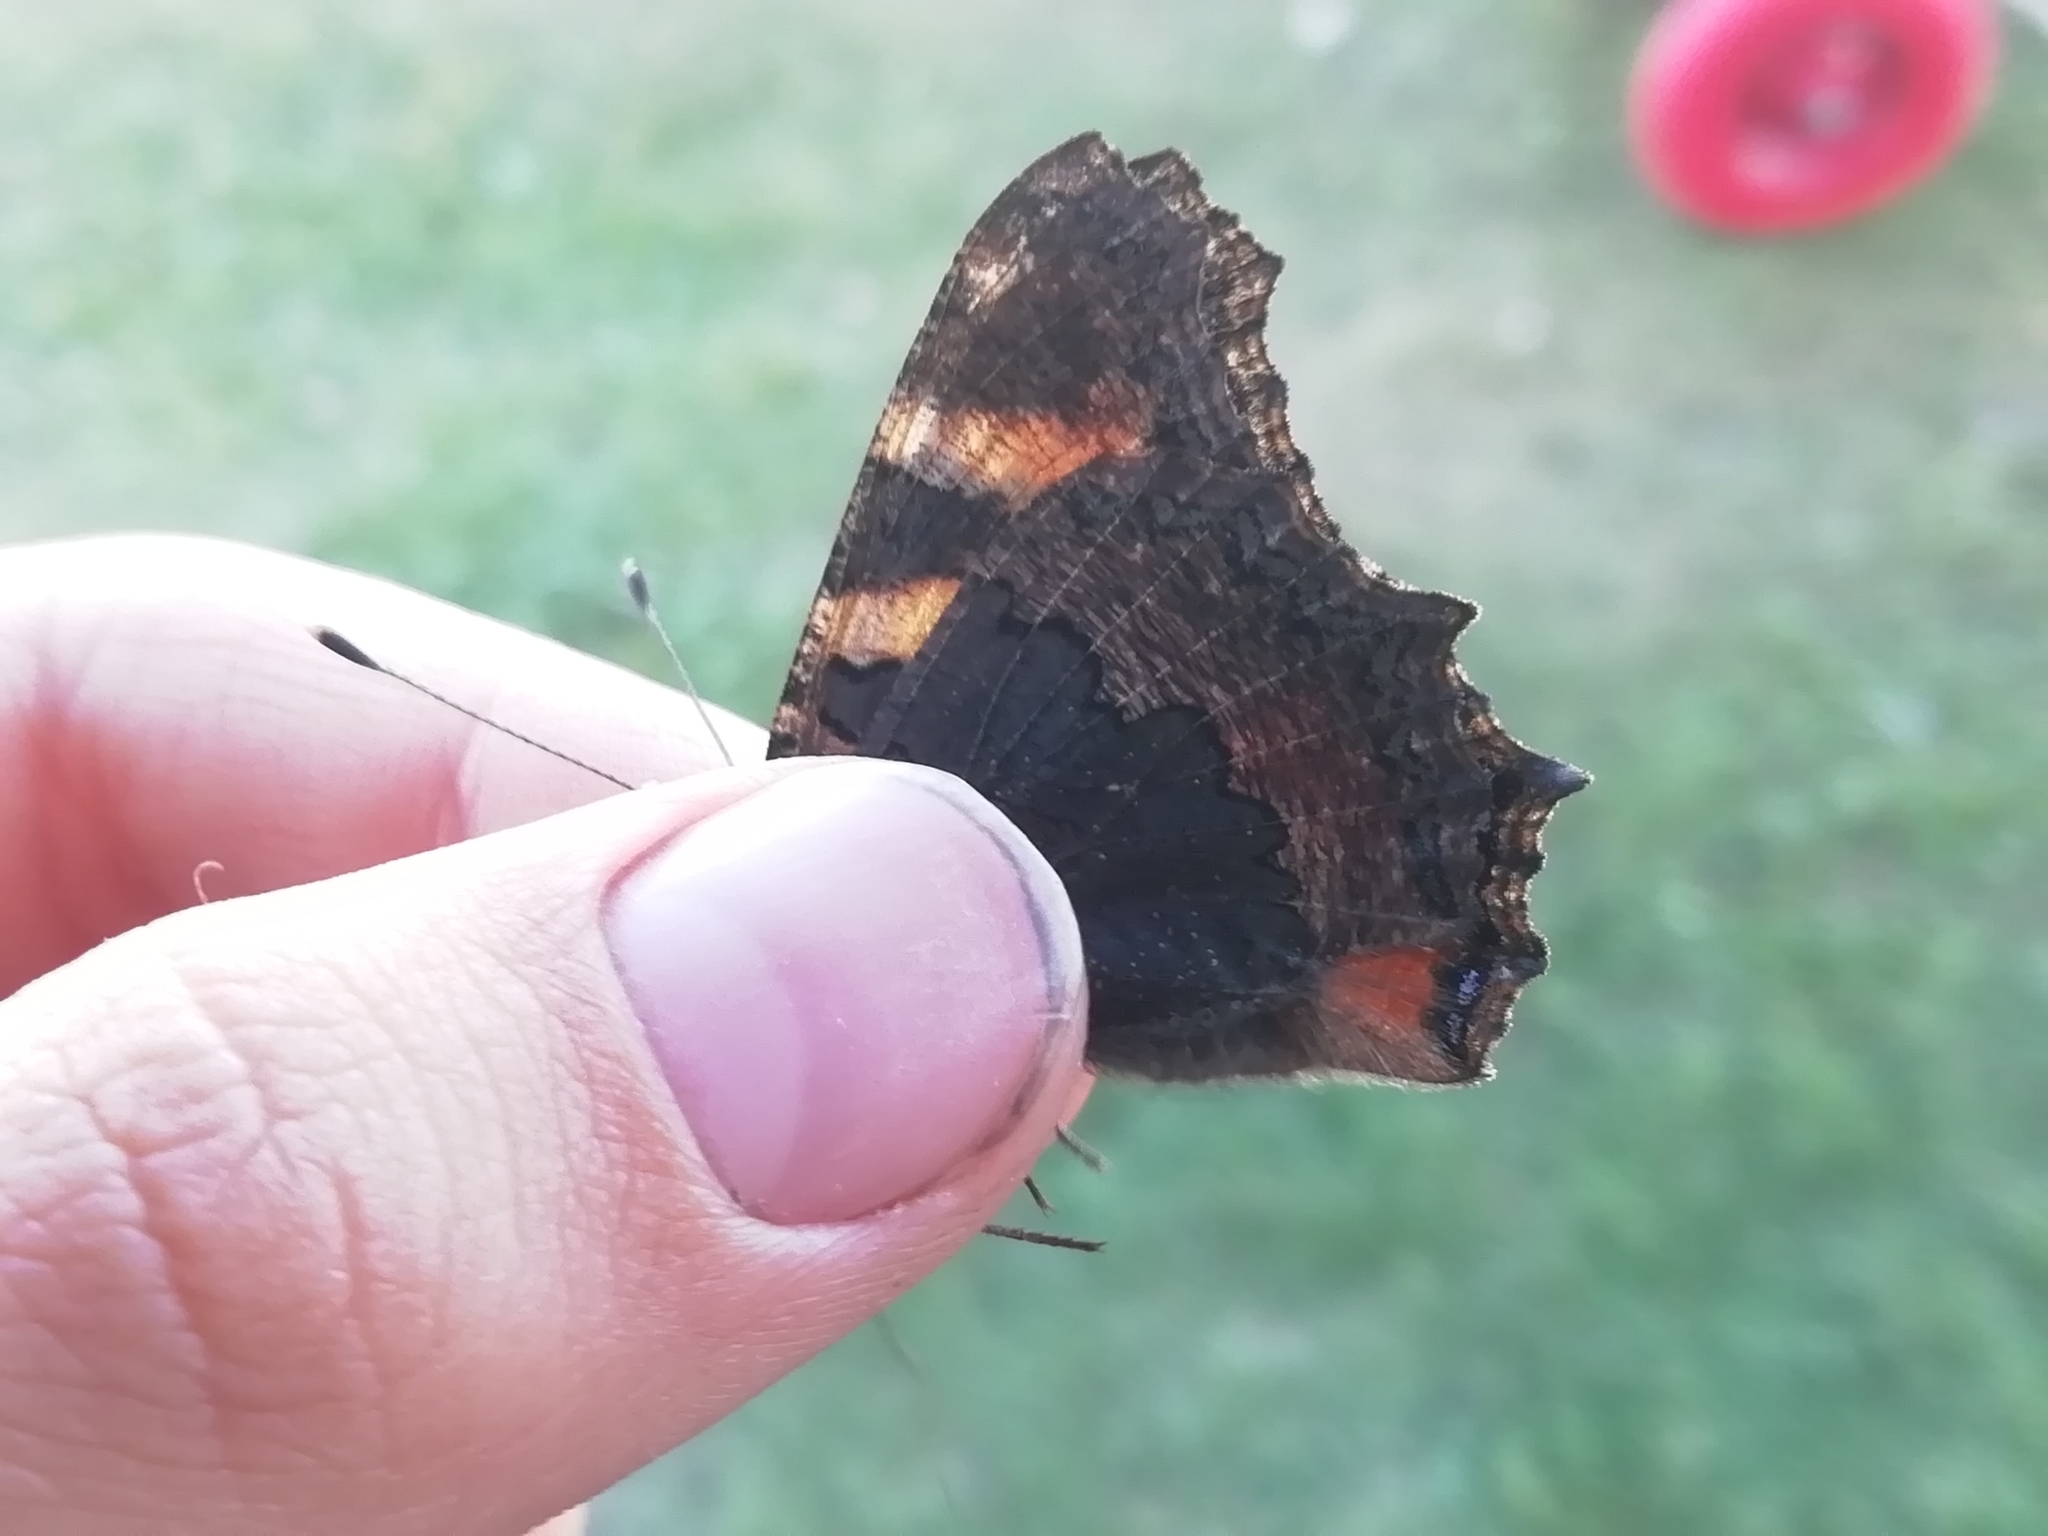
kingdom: Animalia
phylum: Arthropoda
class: Insecta
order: Lepidoptera
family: Nymphalidae
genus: Aglais
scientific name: Aglais urticae
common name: Small tortoiseshell
